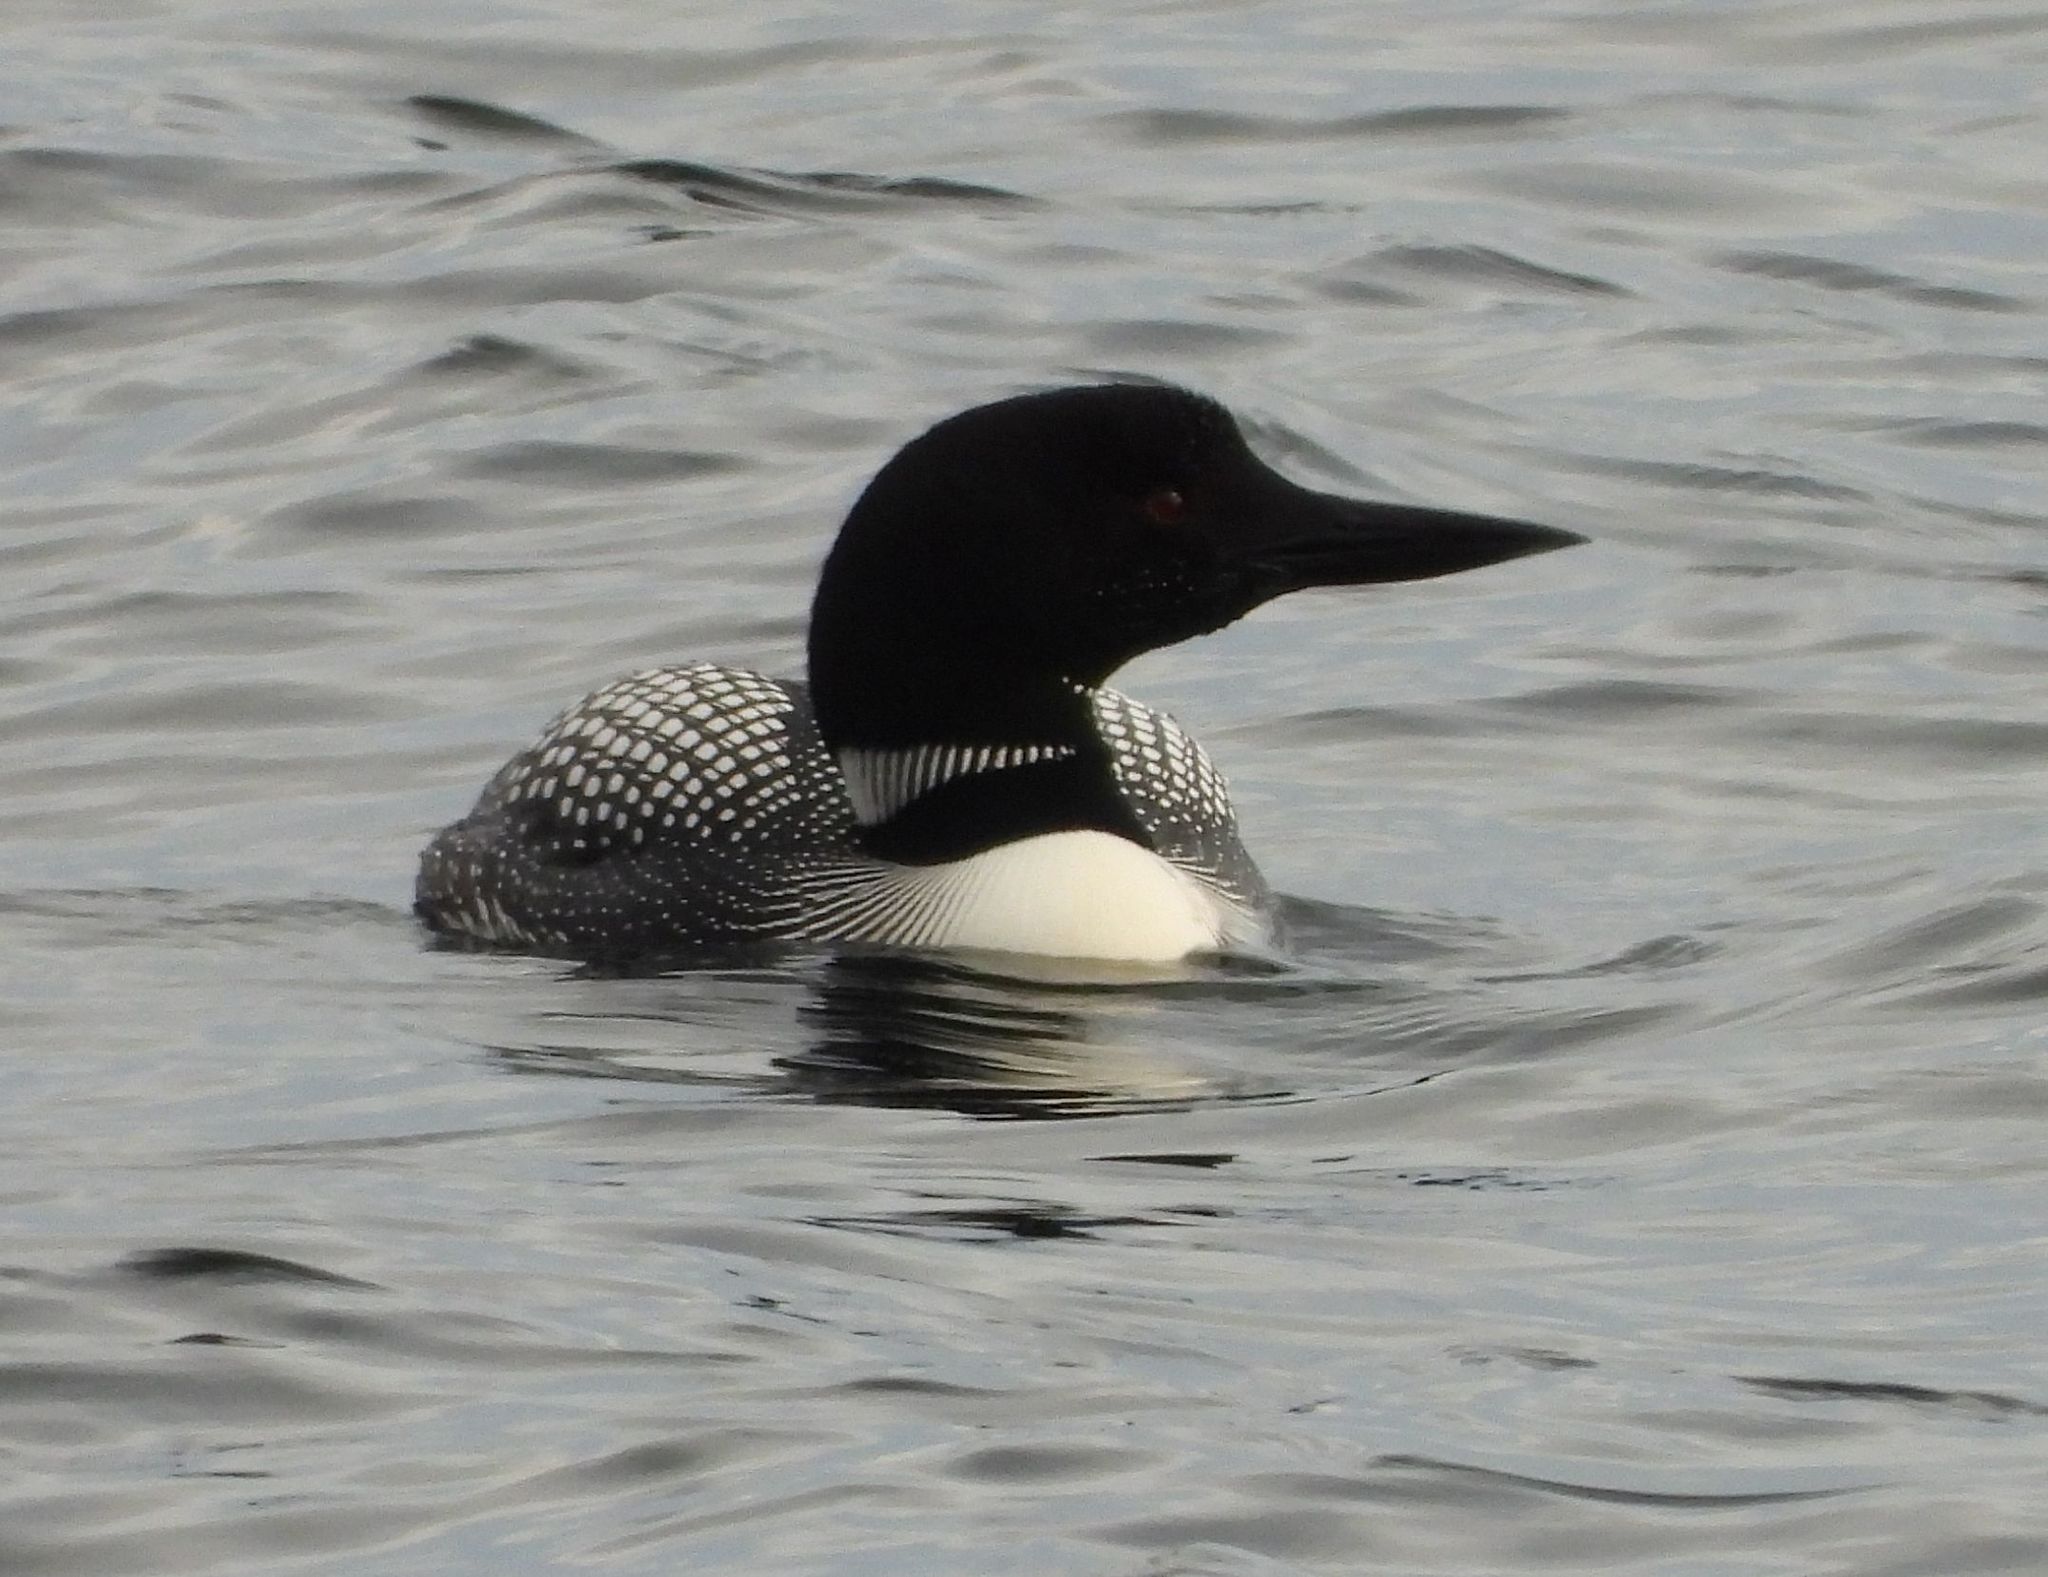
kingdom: Animalia
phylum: Chordata
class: Aves
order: Gaviiformes
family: Gaviidae
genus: Gavia
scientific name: Gavia immer
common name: Common loon
